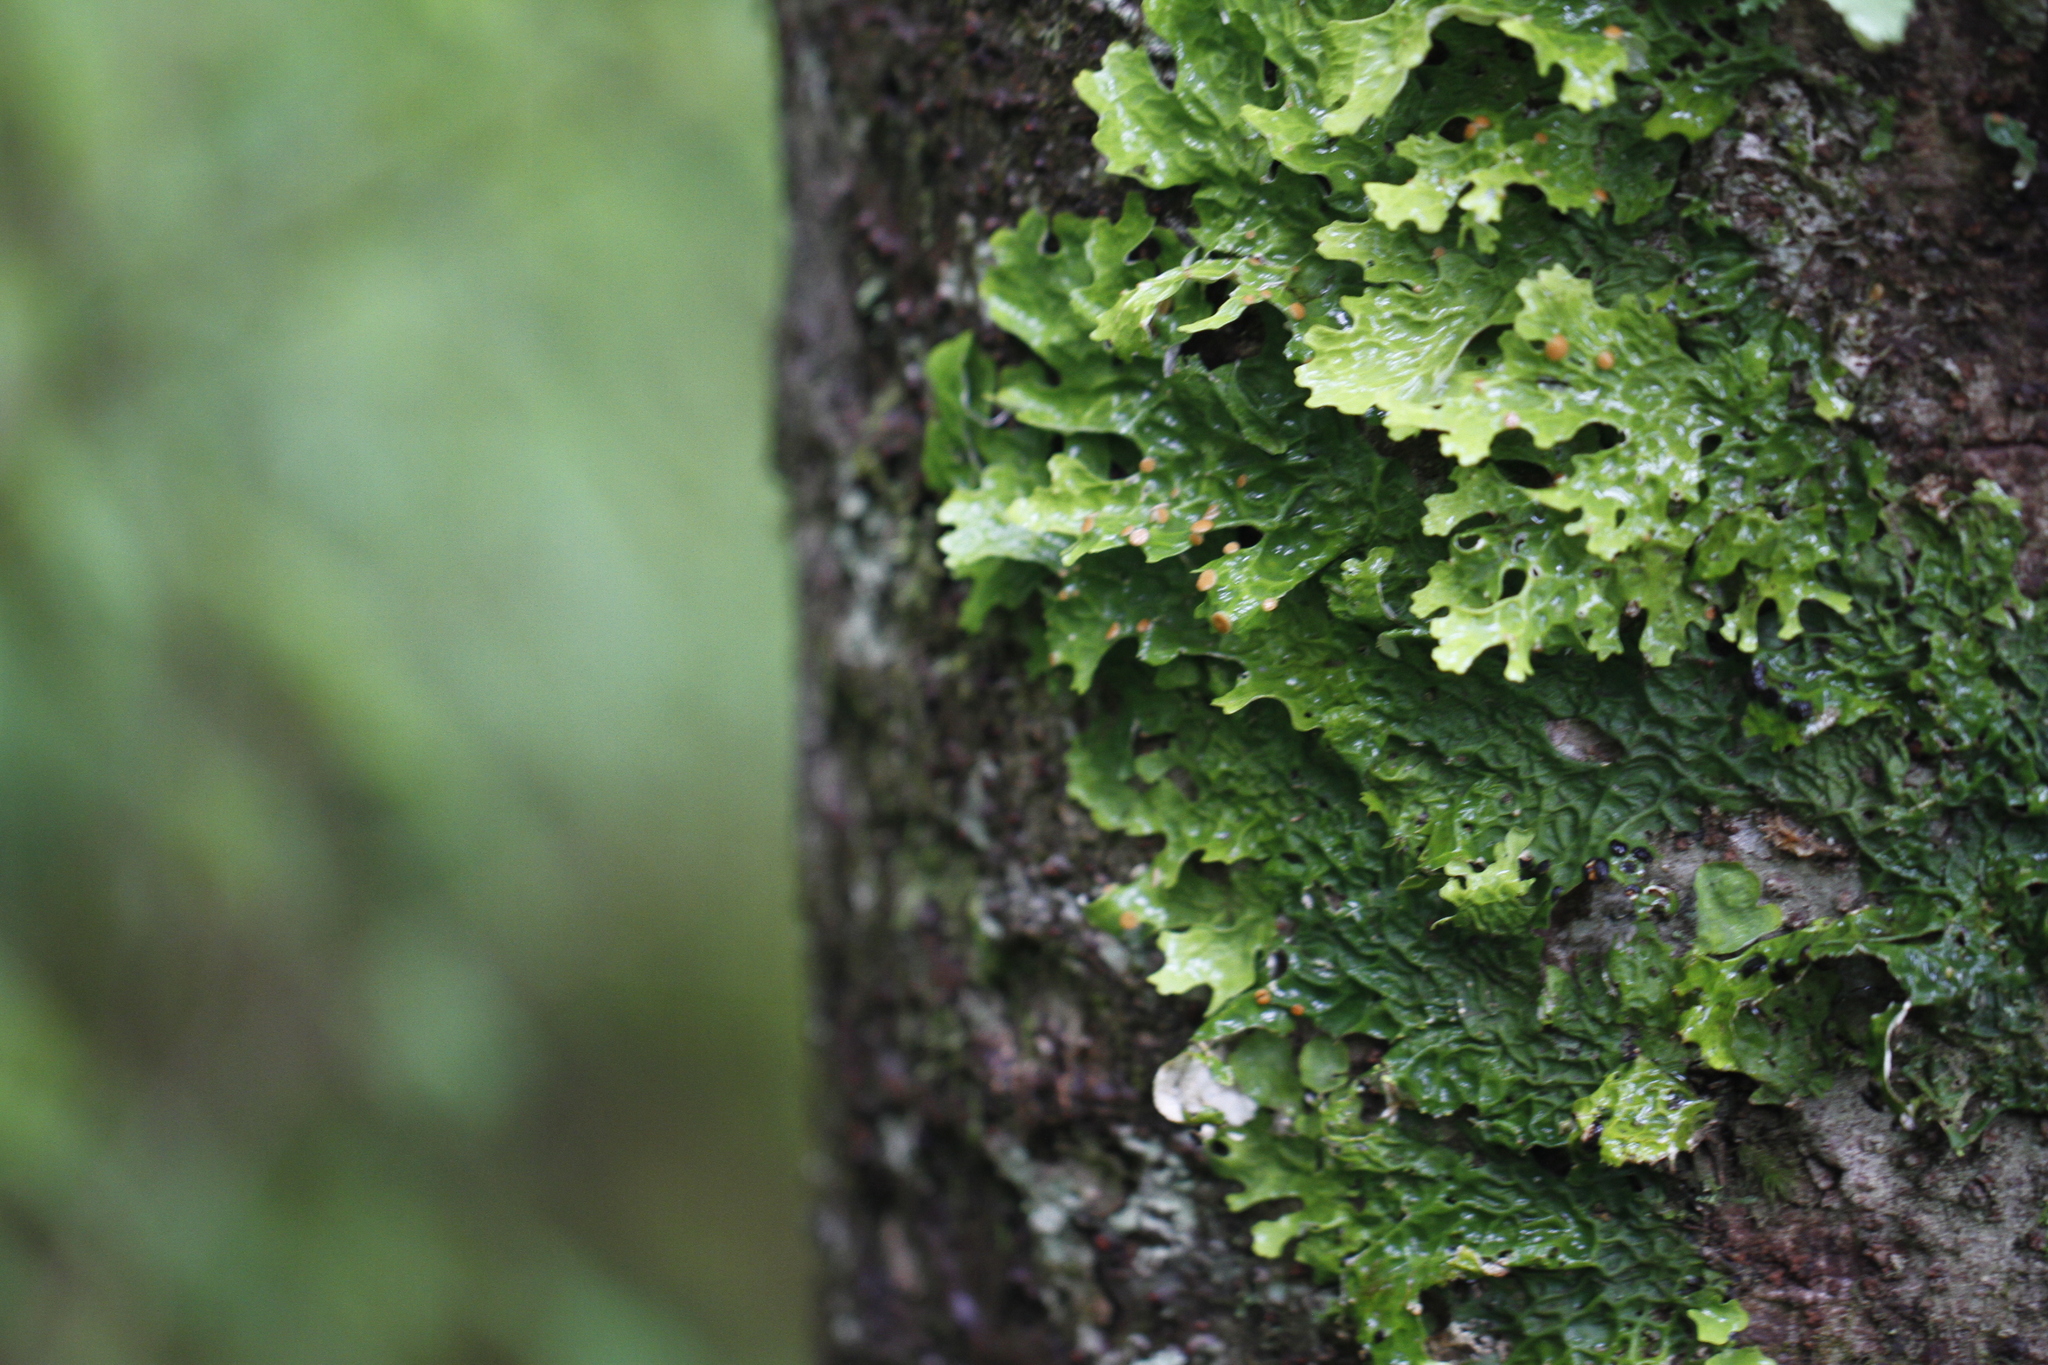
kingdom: Fungi
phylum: Ascomycota
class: Lecanoromycetes
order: Peltigerales
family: Lobariaceae
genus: Lobaria
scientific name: Lobaria linita
